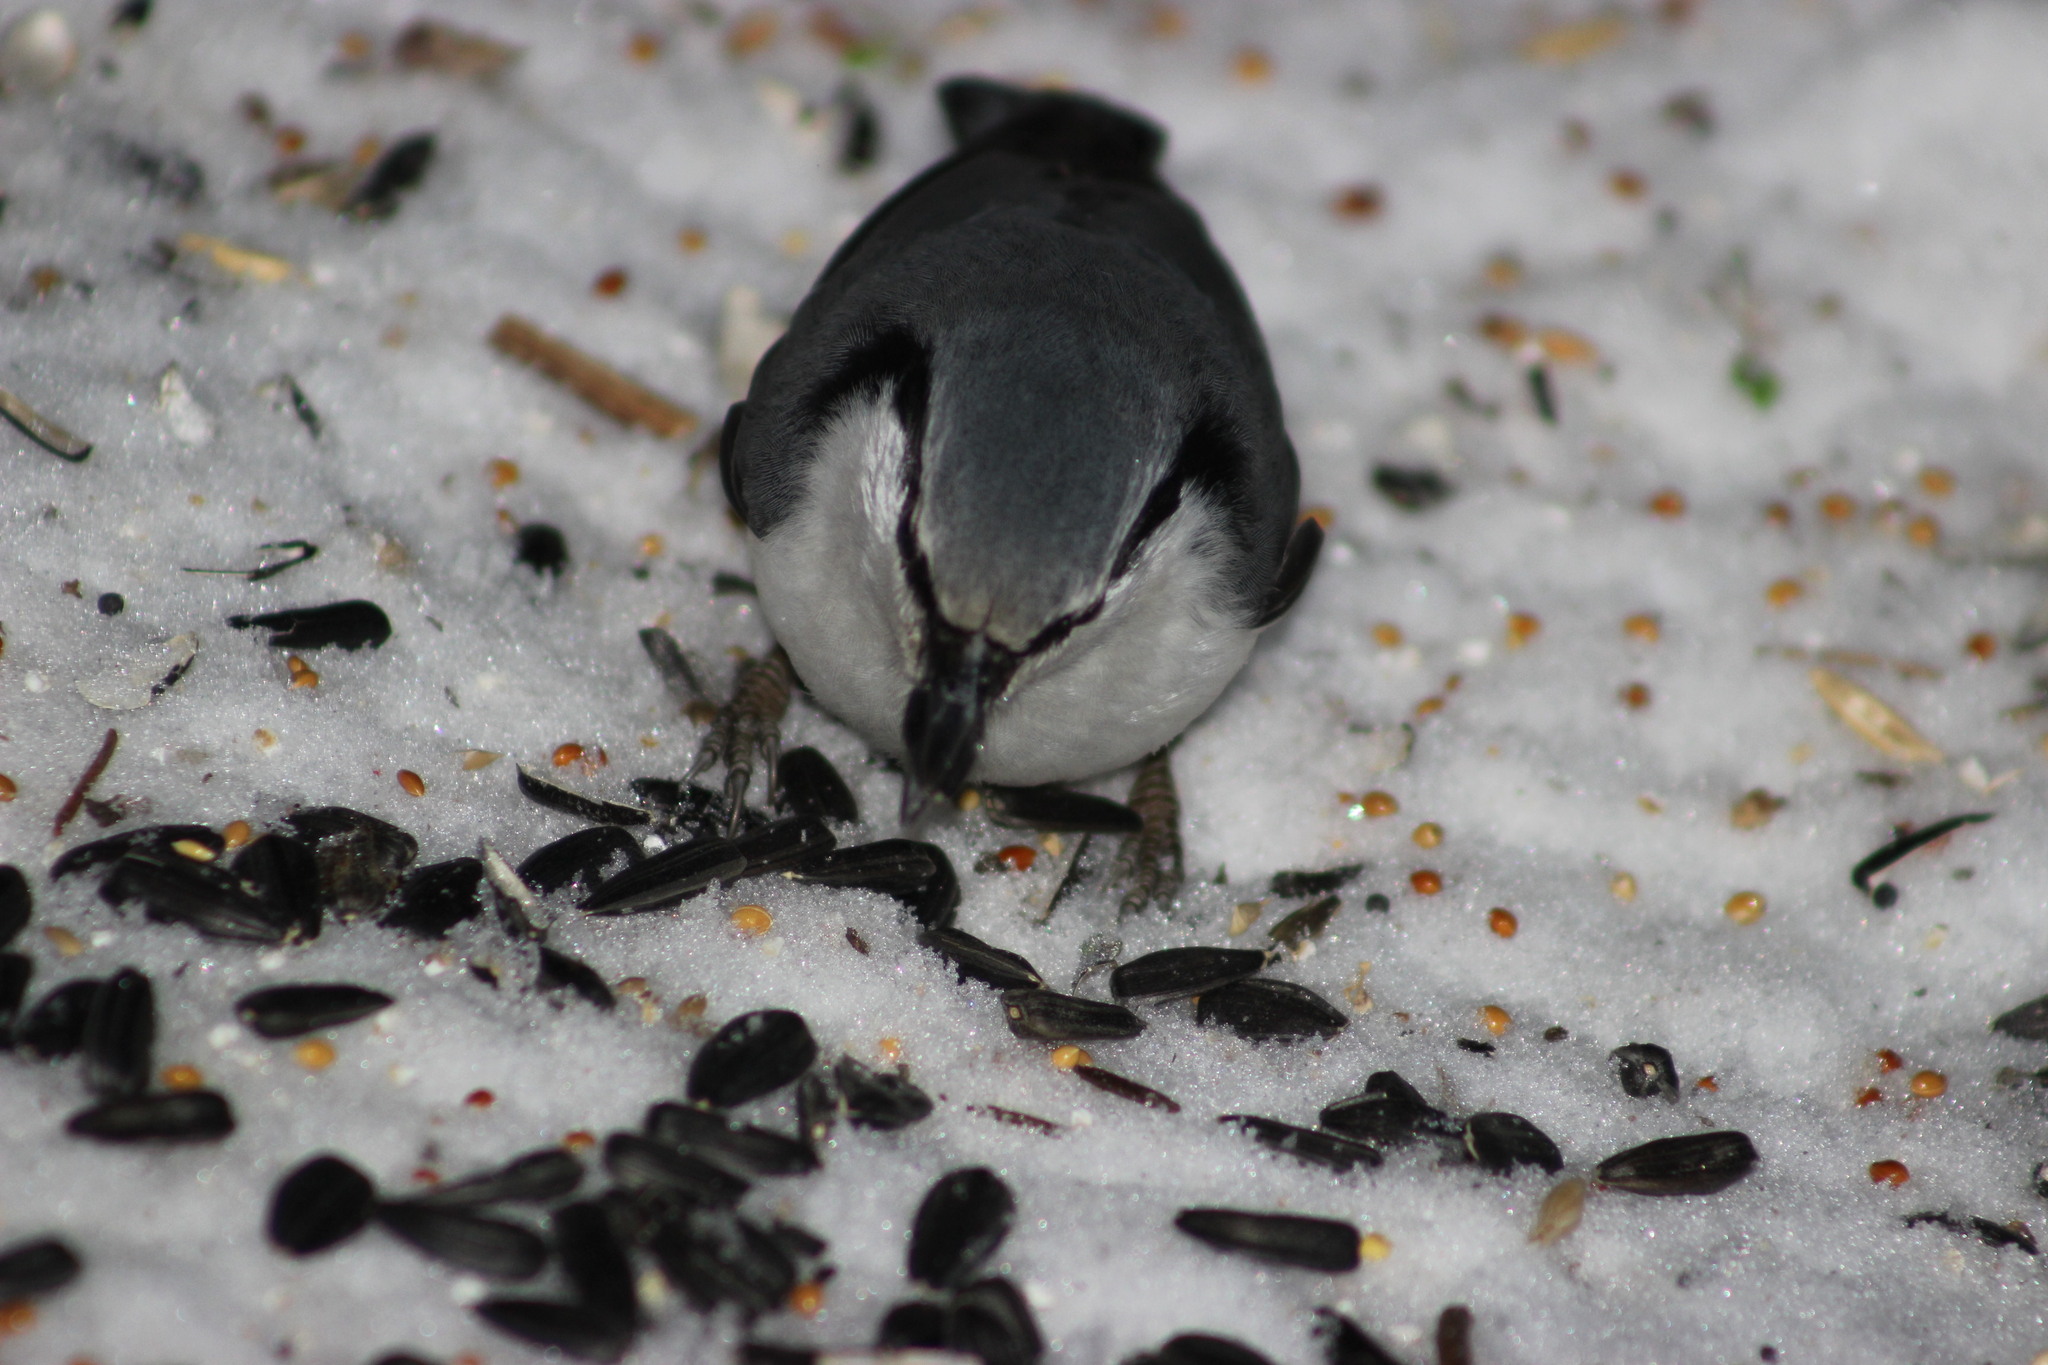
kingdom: Animalia
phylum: Chordata
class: Aves
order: Passeriformes
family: Sittidae
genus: Sitta
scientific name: Sitta europaea
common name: Eurasian nuthatch
